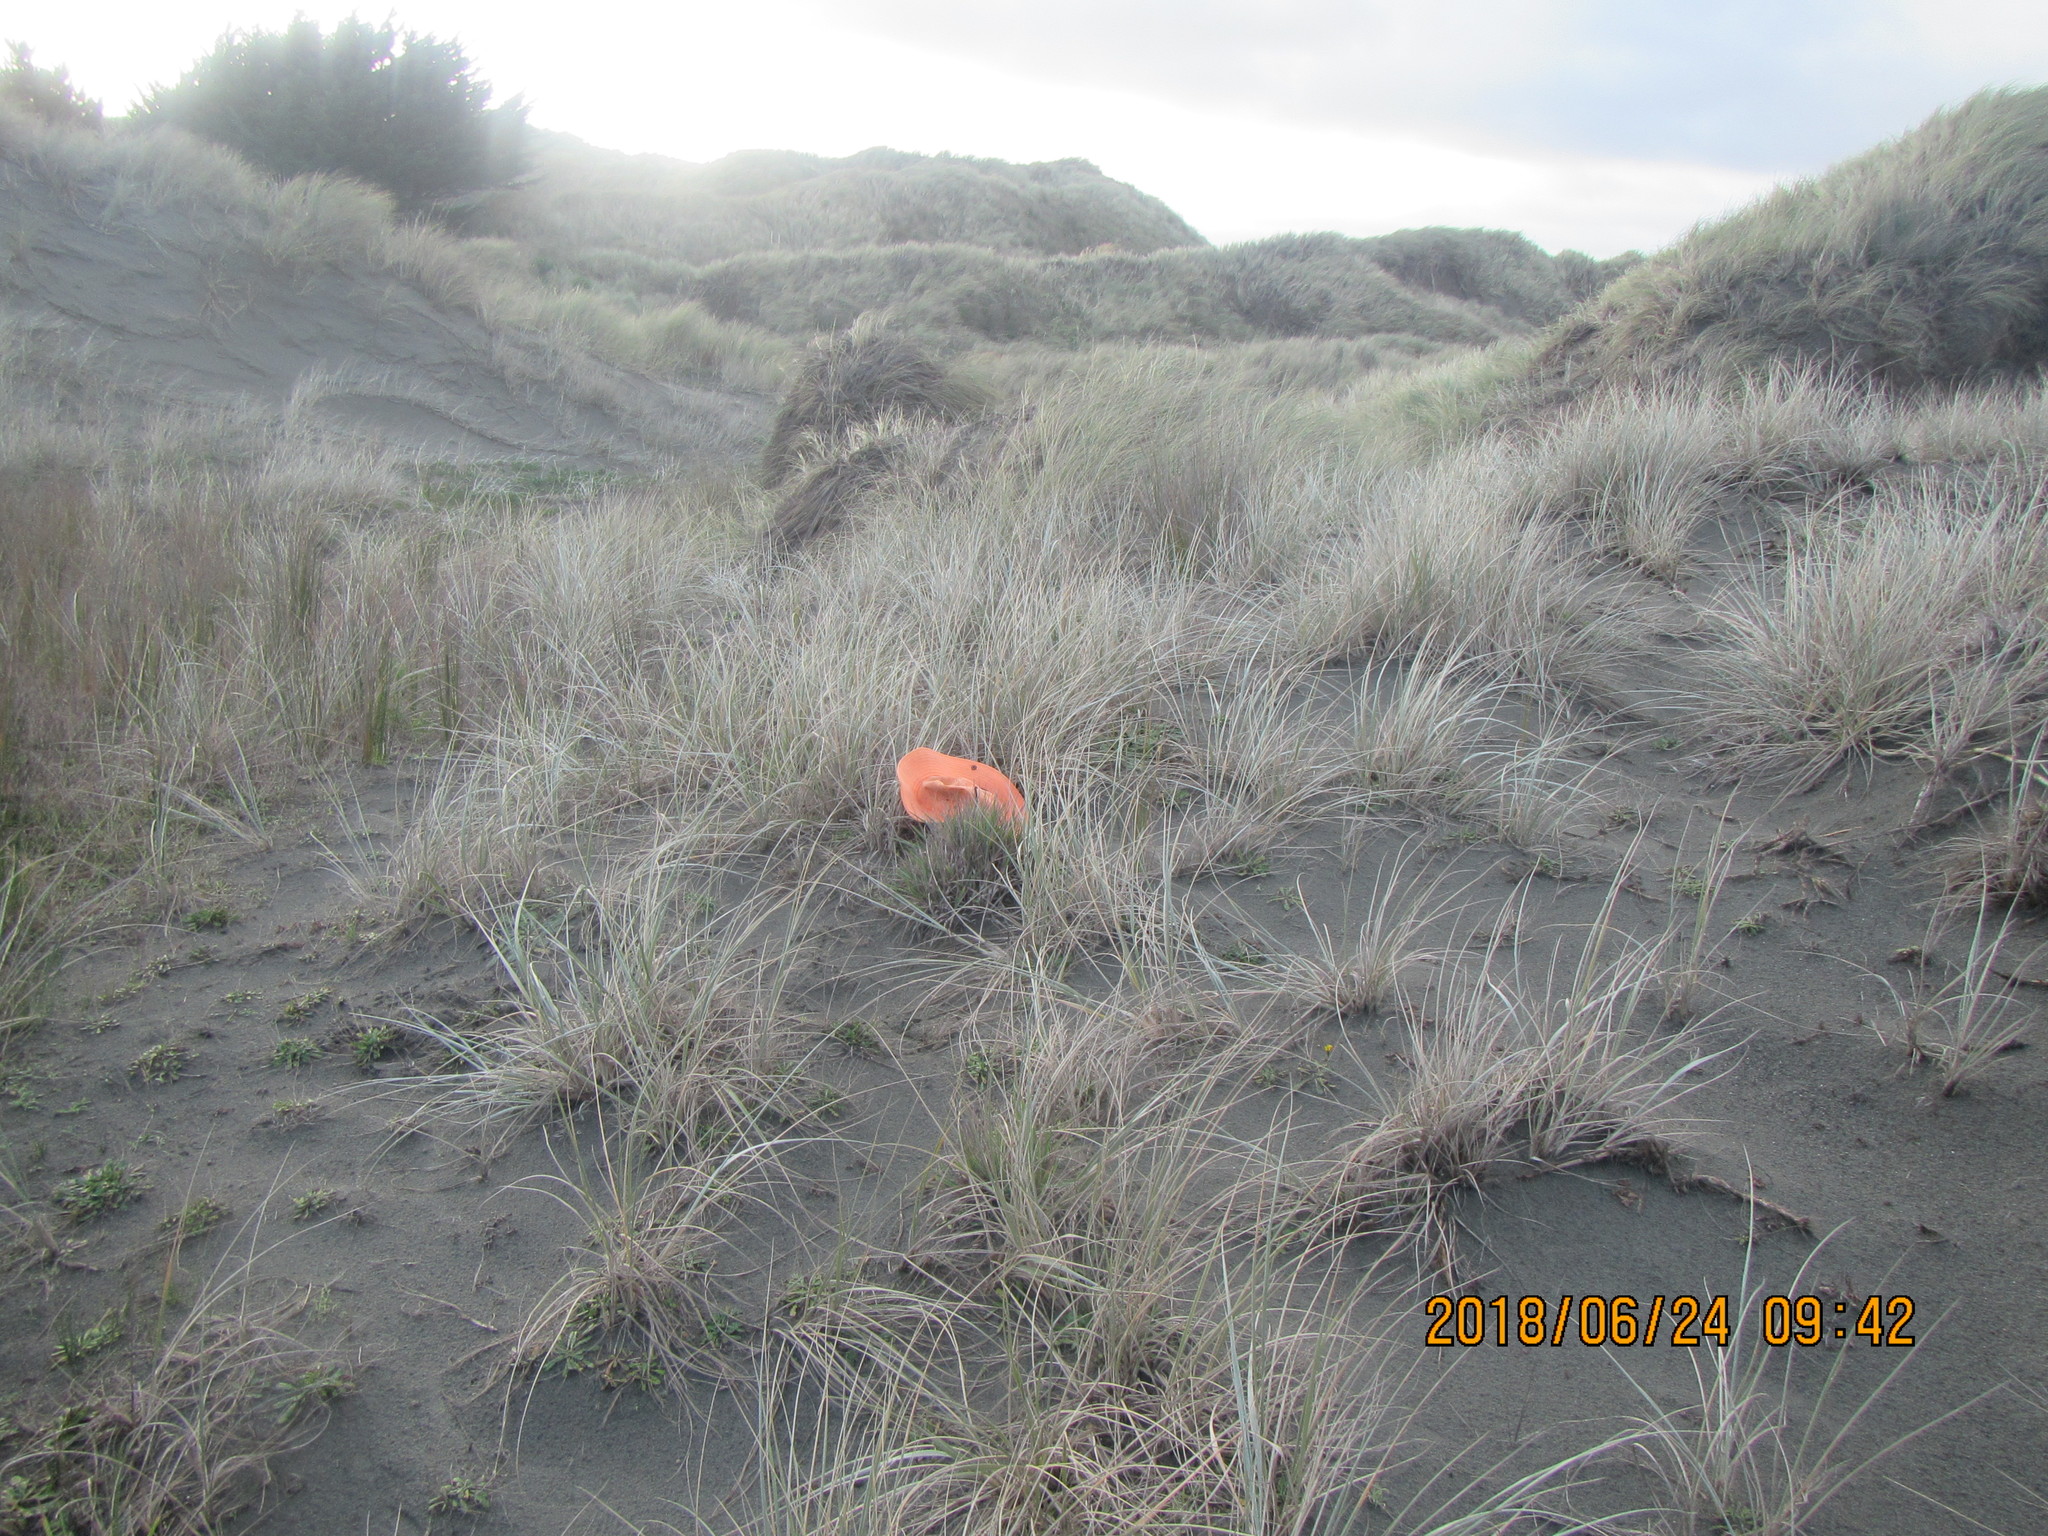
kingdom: Plantae
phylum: Tracheophyta
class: Liliopsida
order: Poales
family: Poaceae
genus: Lachnagrostis
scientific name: Lachnagrostis billardierei
